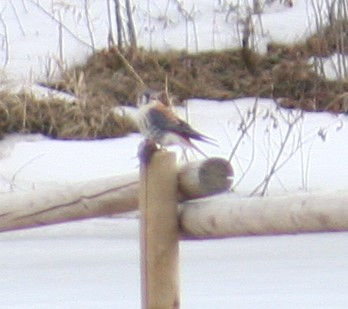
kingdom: Animalia
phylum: Chordata
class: Aves
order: Falconiformes
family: Falconidae
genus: Falco
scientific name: Falco sparverius
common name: American kestrel
